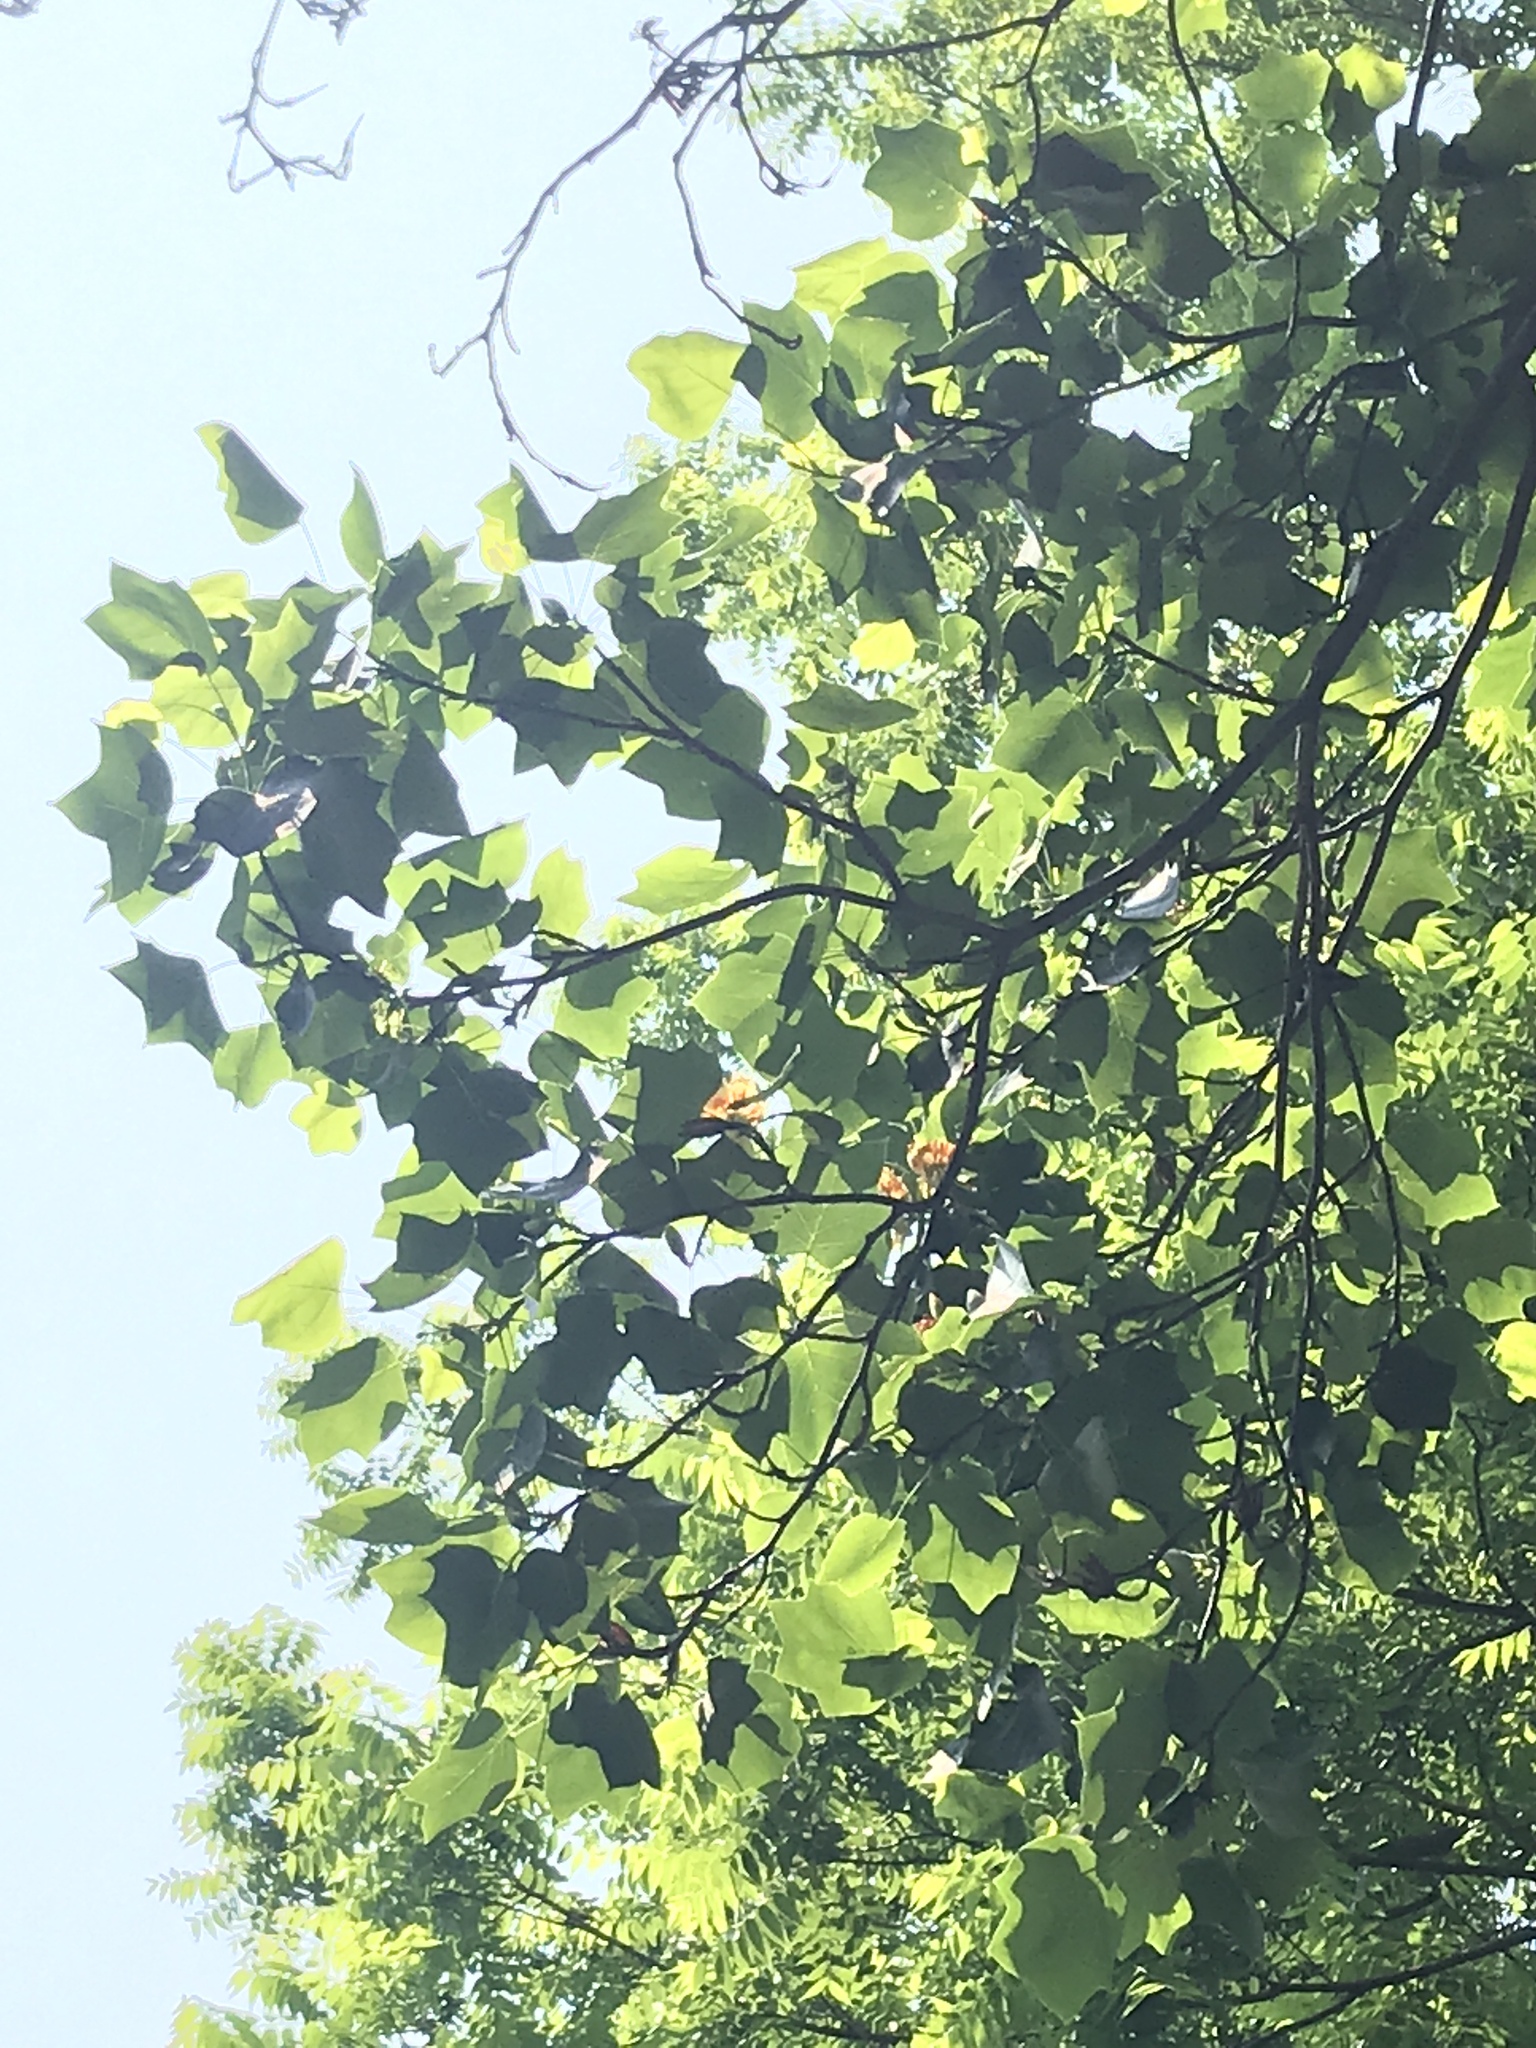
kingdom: Plantae
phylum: Tracheophyta
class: Magnoliopsida
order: Magnoliales
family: Magnoliaceae
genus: Liriodendron
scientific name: Liriodendron tulipifera
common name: Tulip tree
